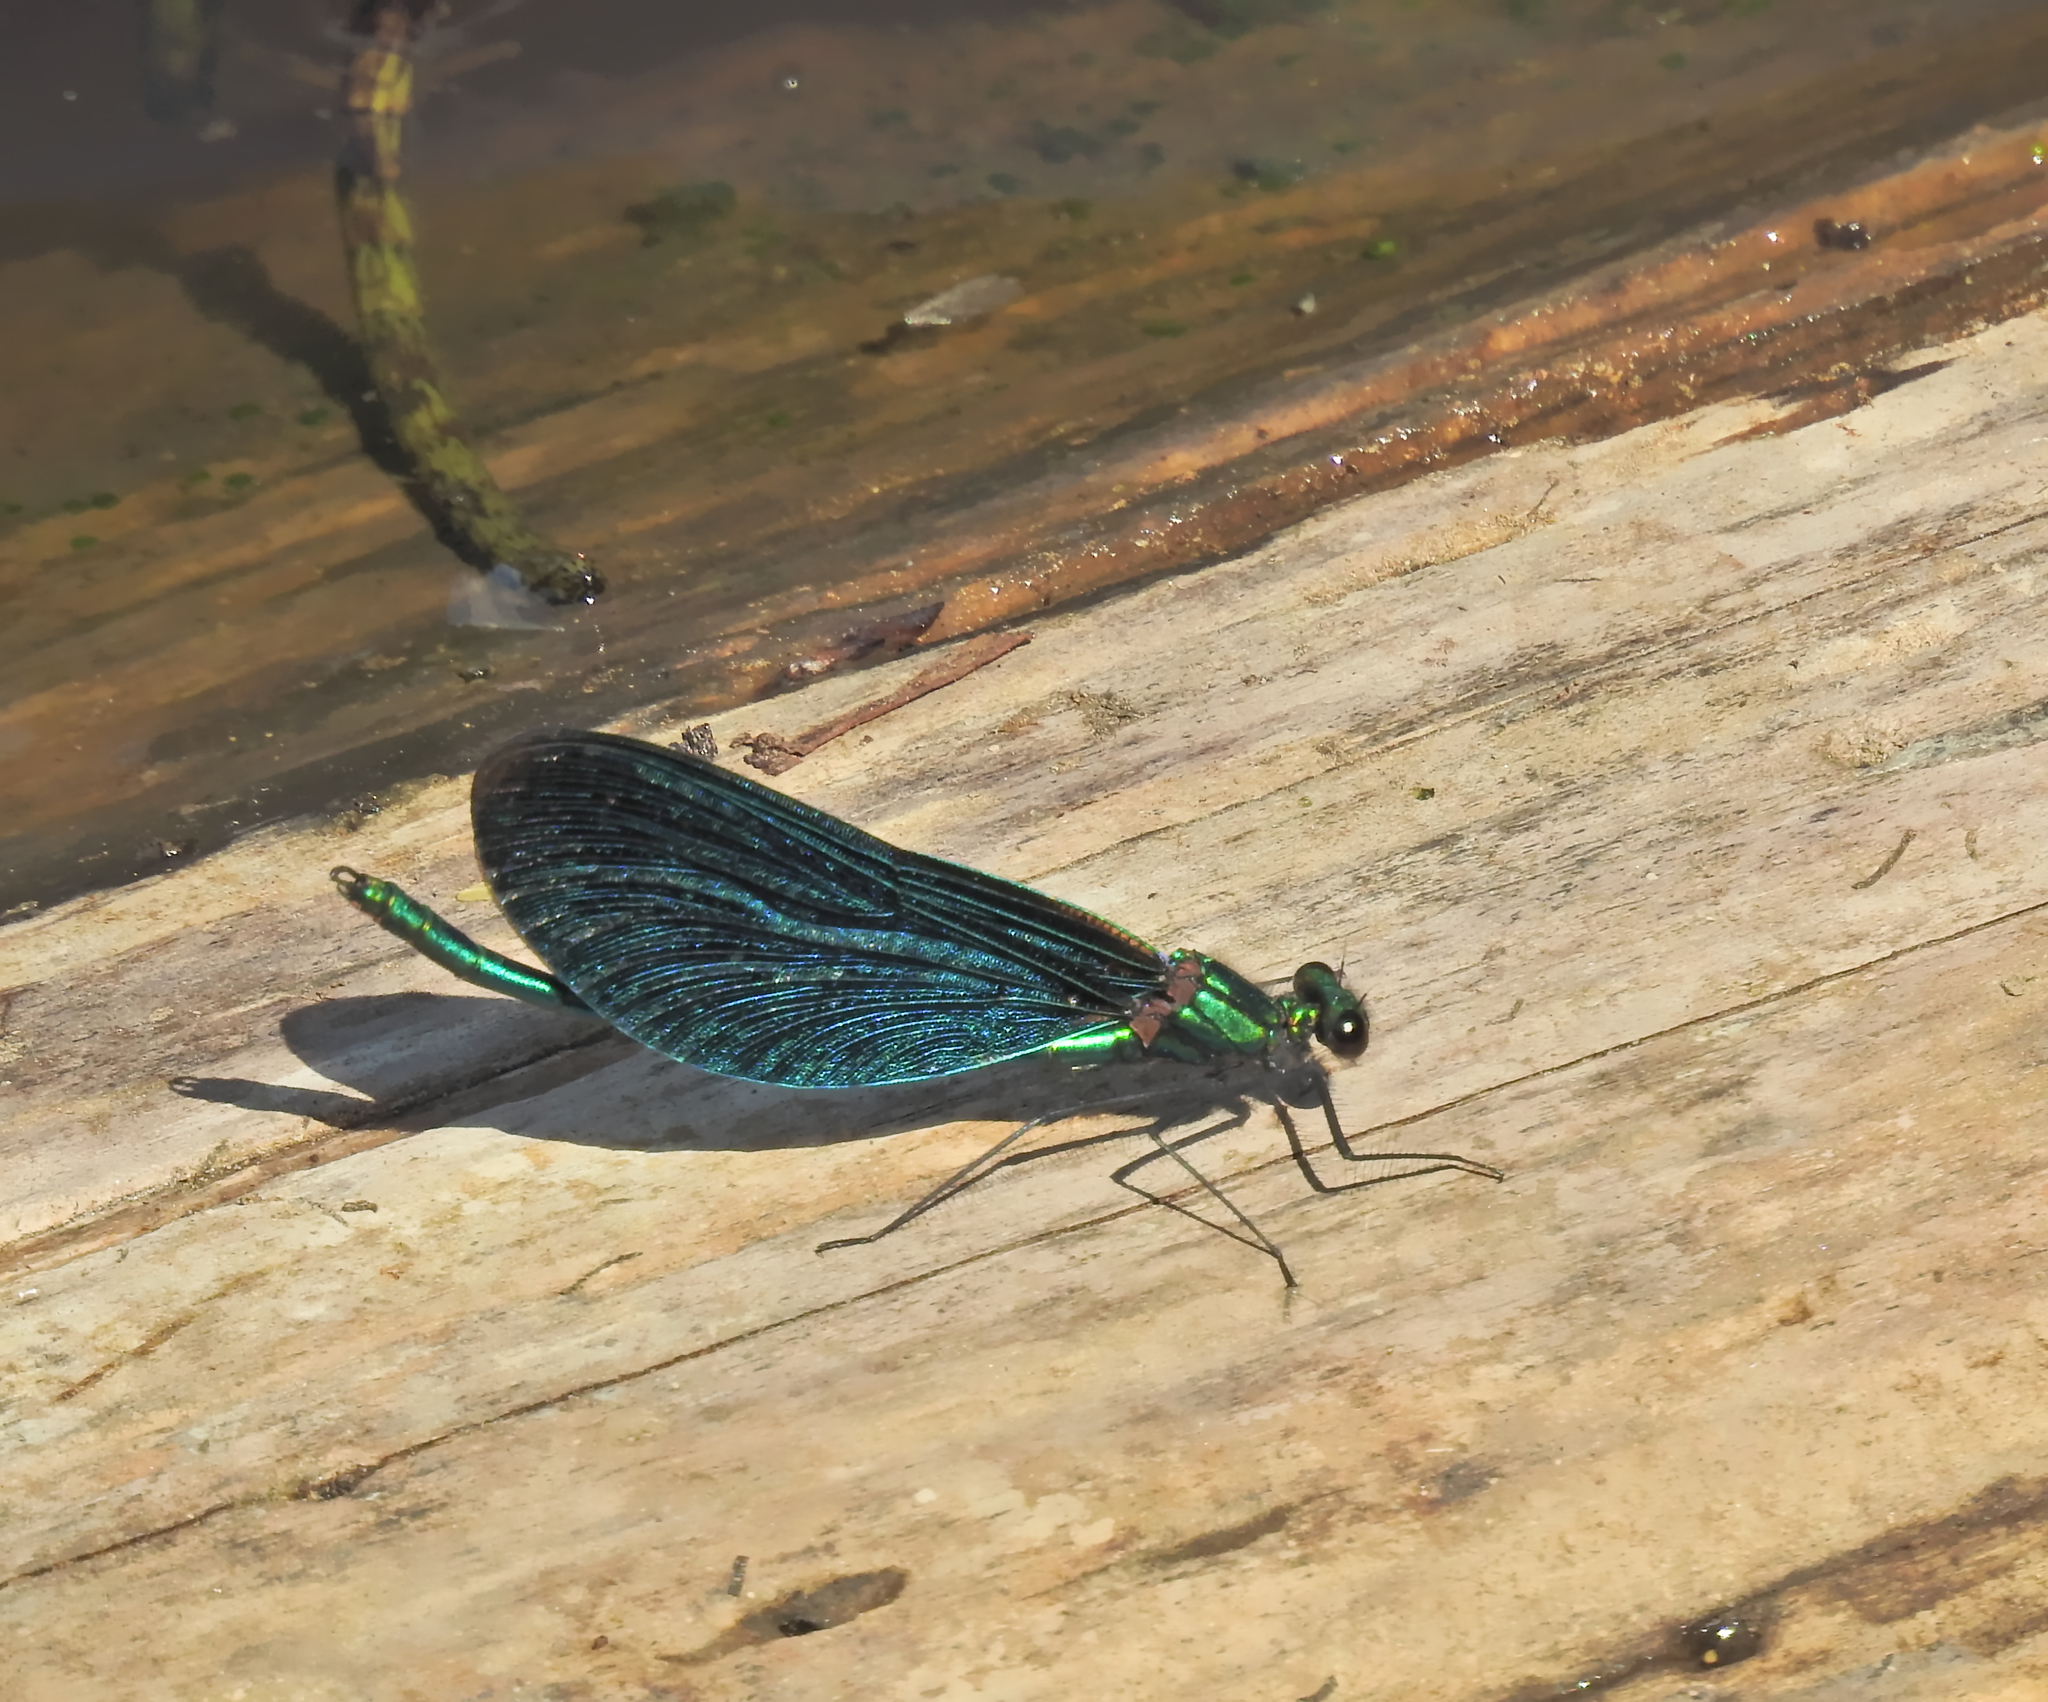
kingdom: Animalia
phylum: Arthropoda
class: Insecta
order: Odonata
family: Calopterygidae
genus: Calopteryx
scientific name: Calopteryx virgo
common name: Beautiful demoiselle
